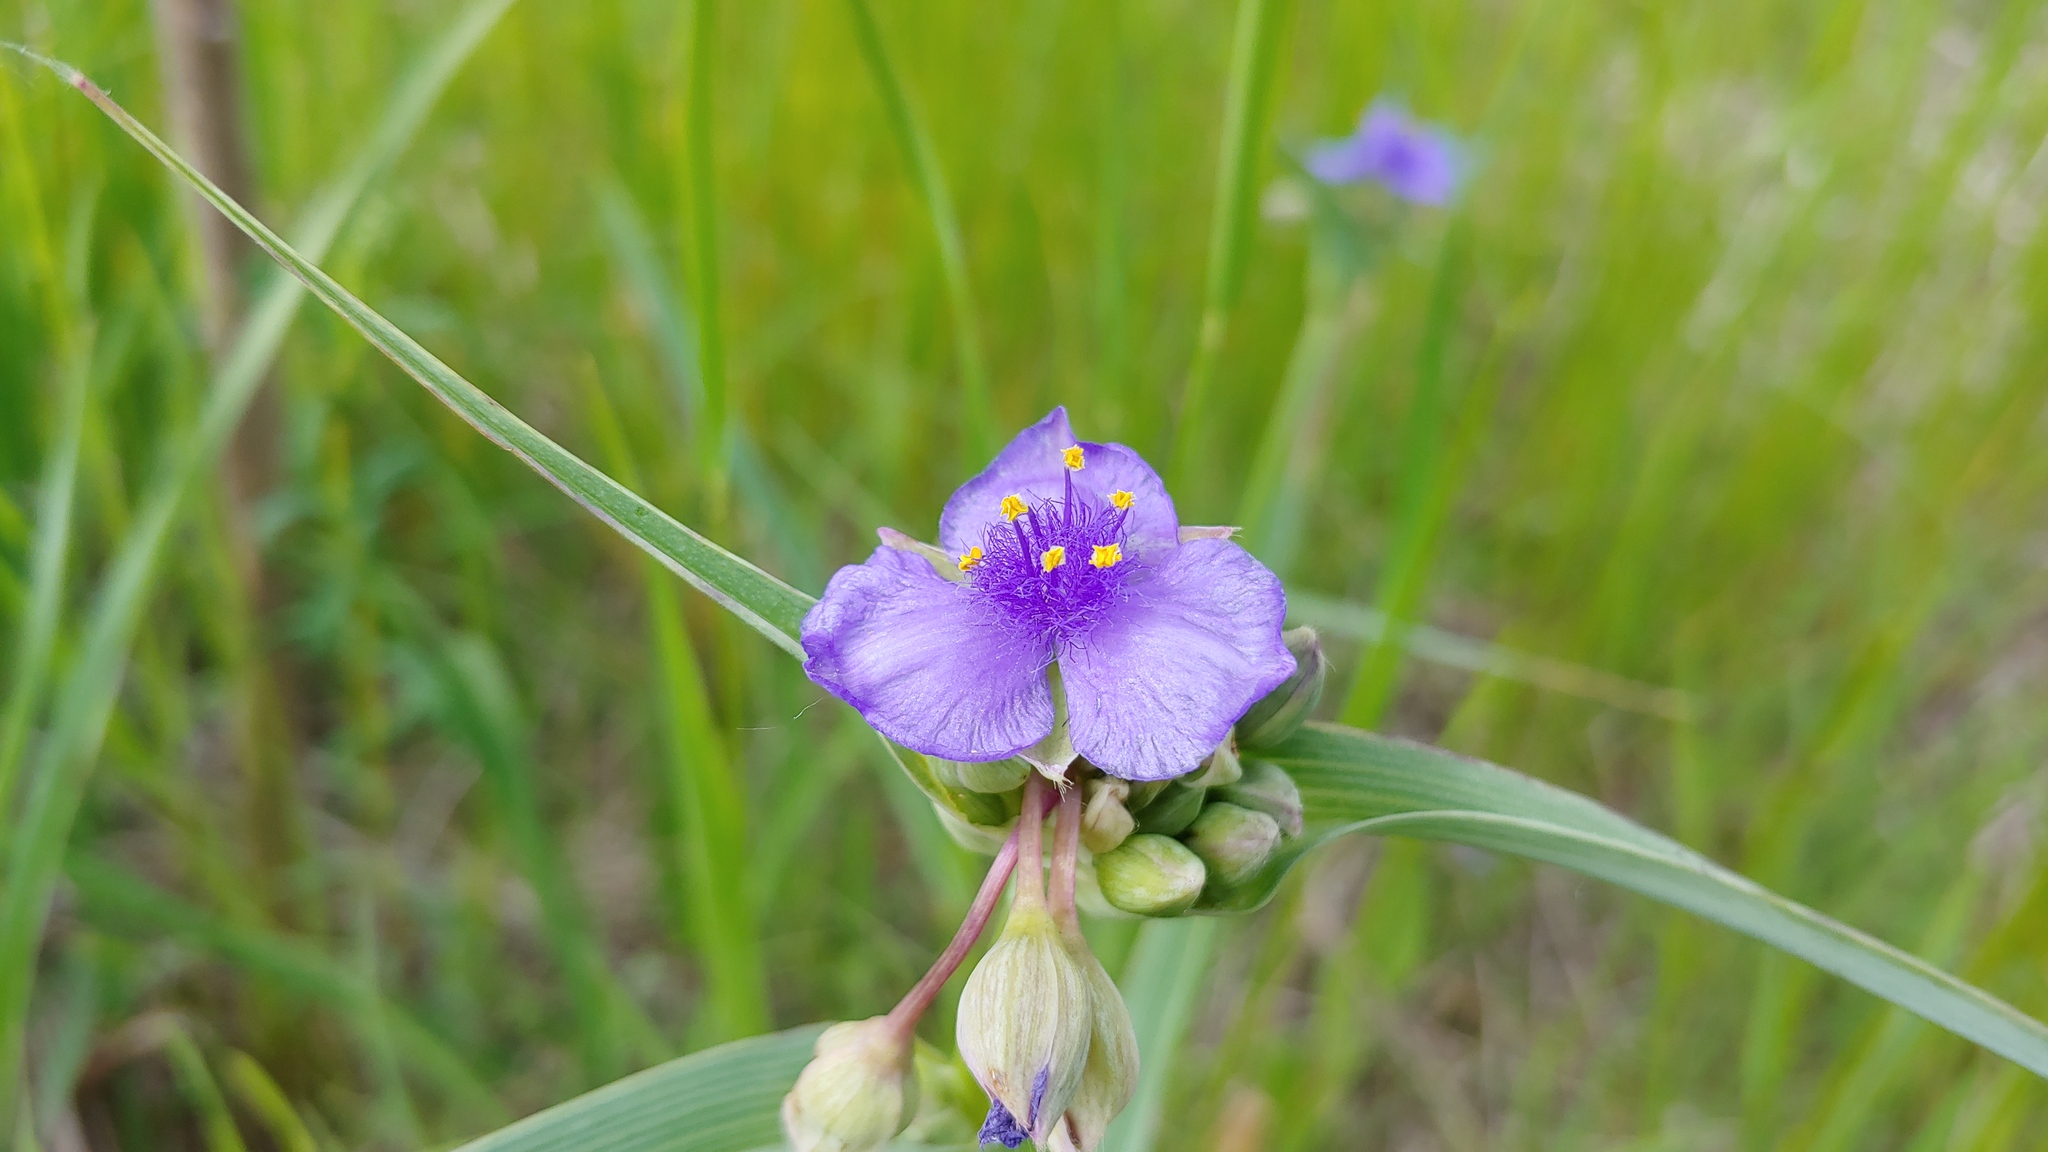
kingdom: Plantae
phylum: Tracheophyta
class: Liliopsida
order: Commelinales
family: Commelinaceae
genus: Tradescantia
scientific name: Tradescantia ohiensis
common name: Ohio spiderwort
